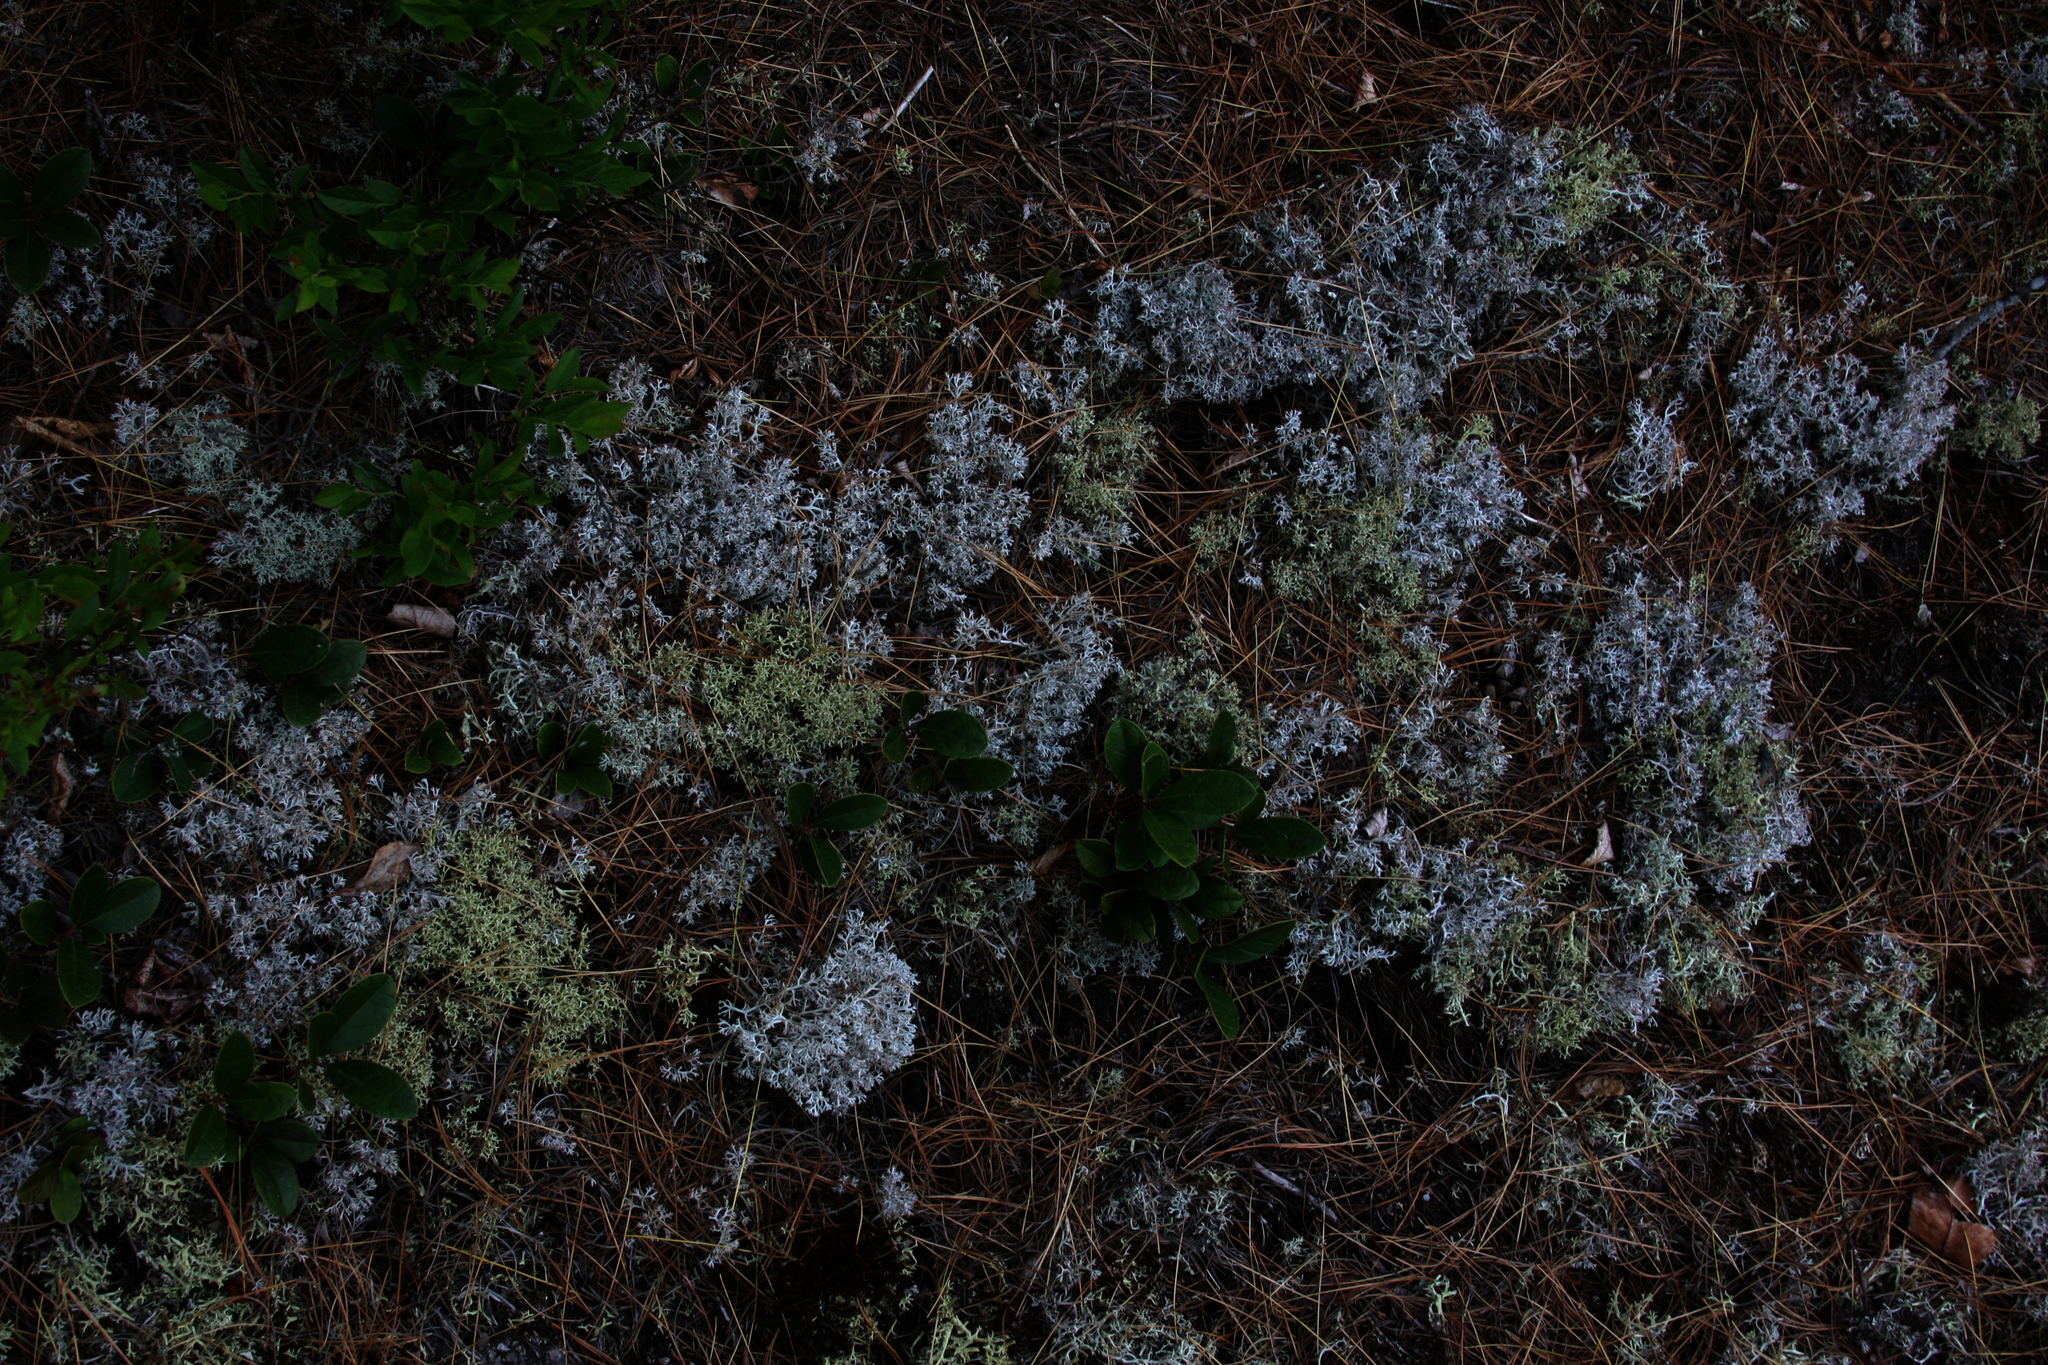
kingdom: Plantae
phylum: Tracheophyta
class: Magnoliopsida
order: Ericales
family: Ericaceae
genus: Gaultheria
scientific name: Gaultheria procumbens
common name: Checkerberry
